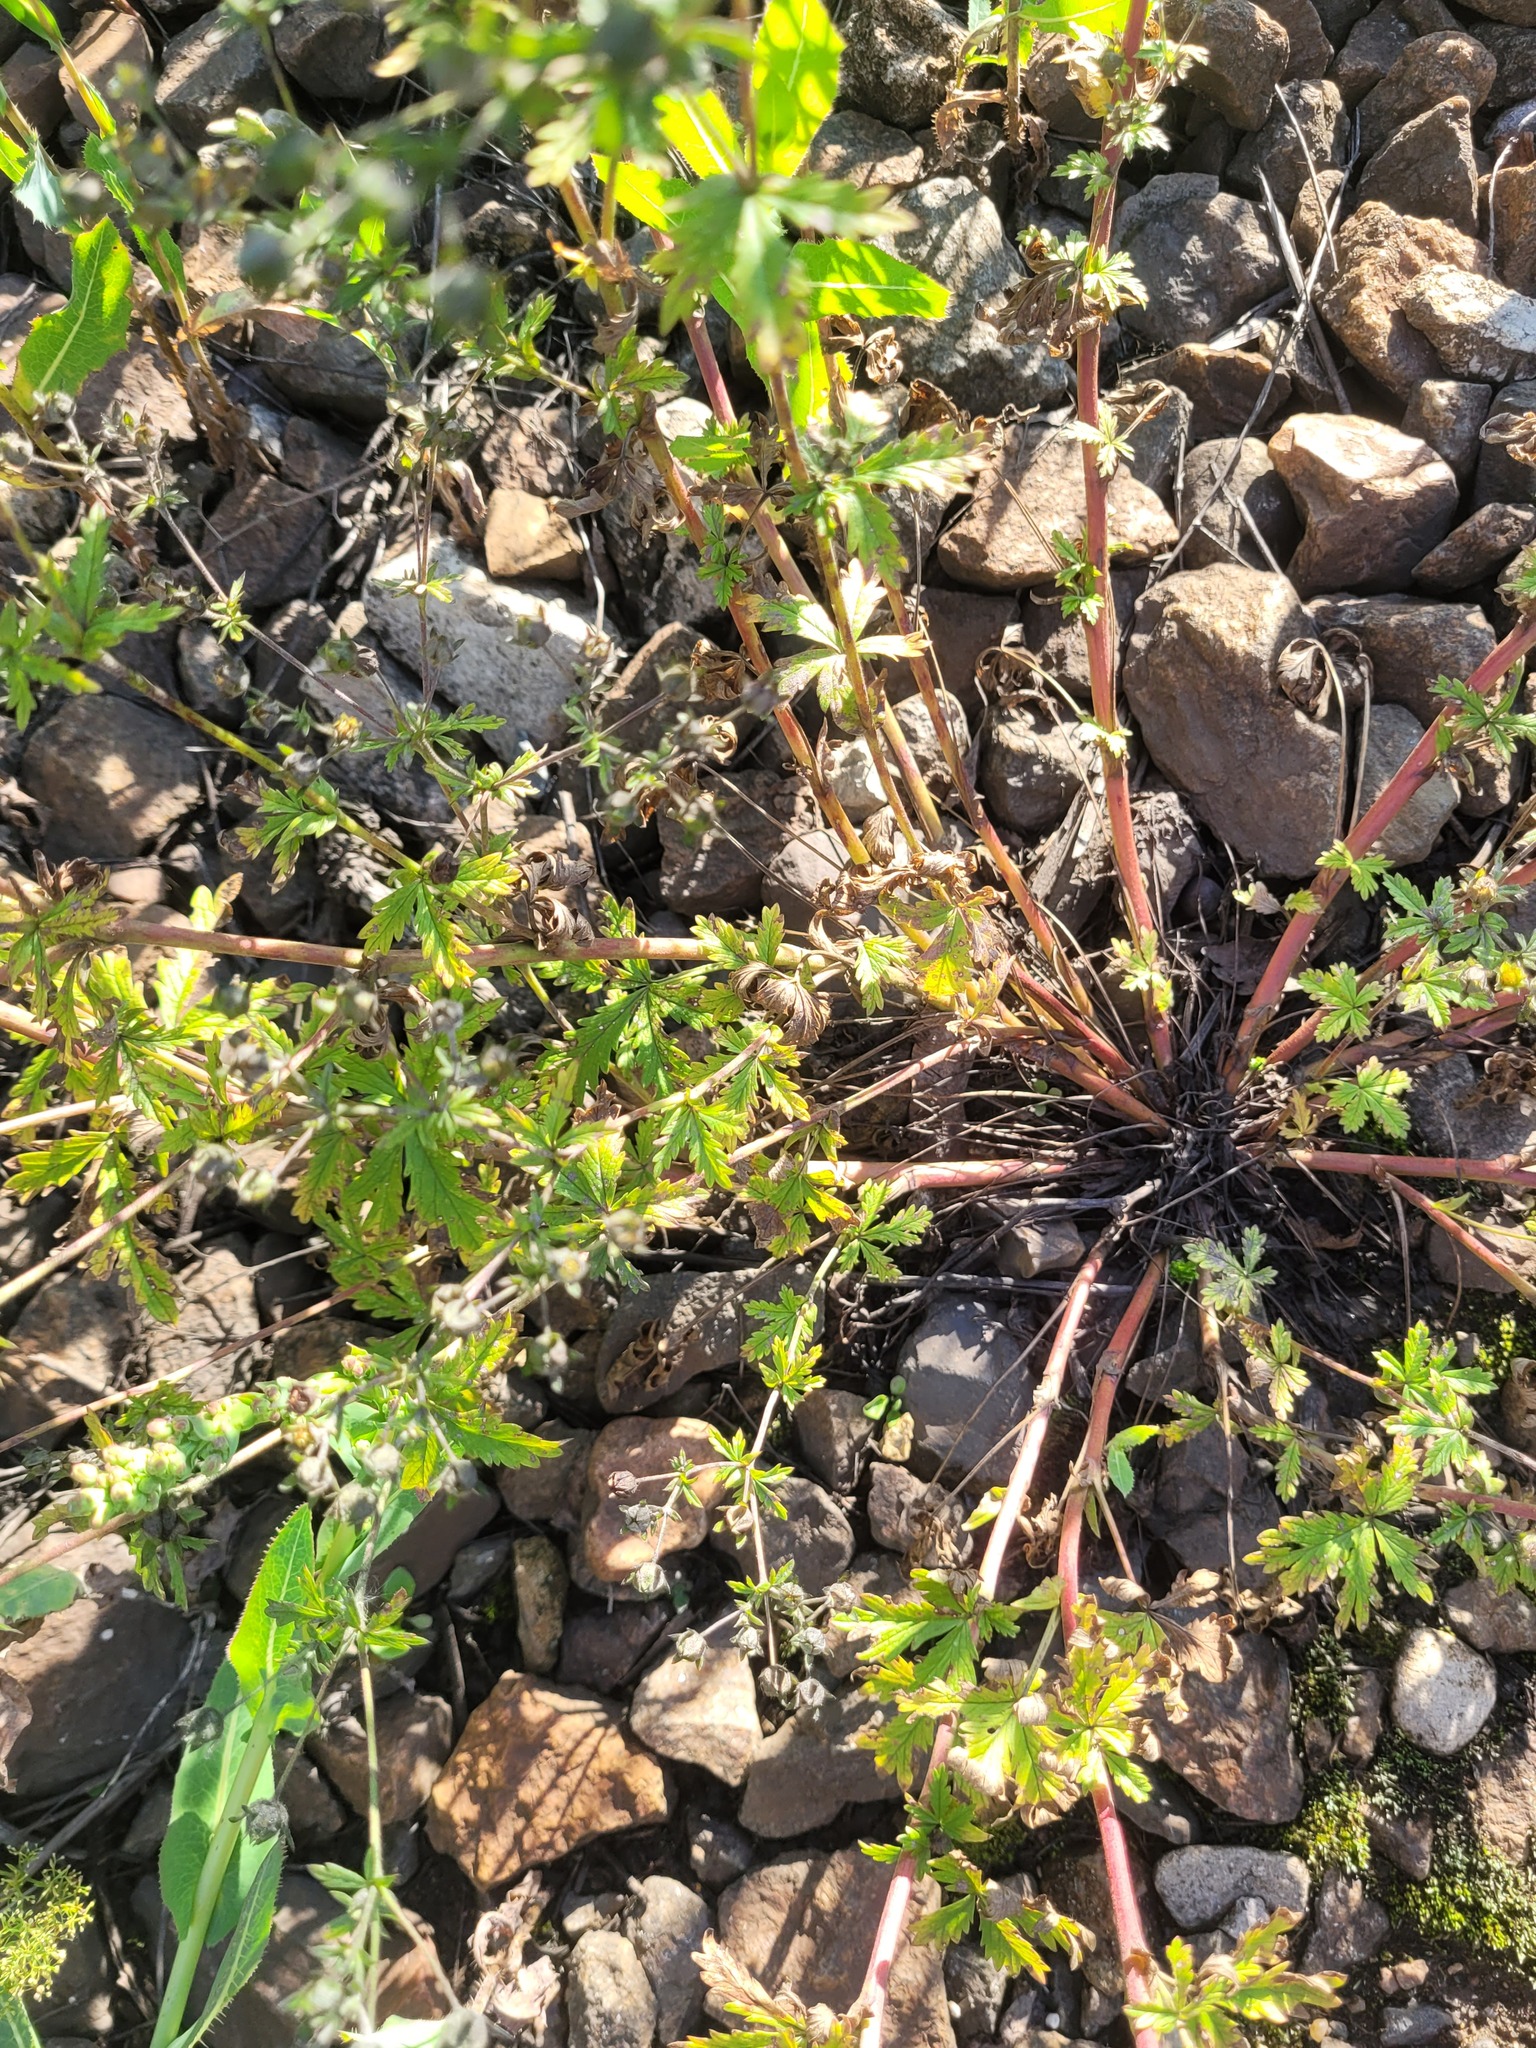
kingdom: Plantae
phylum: Tracheophyta
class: Magnoliopsida
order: Rosales
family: Rosaceae
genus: Potentilla
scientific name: Potentilla intermedia
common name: Downy cinquefoil
